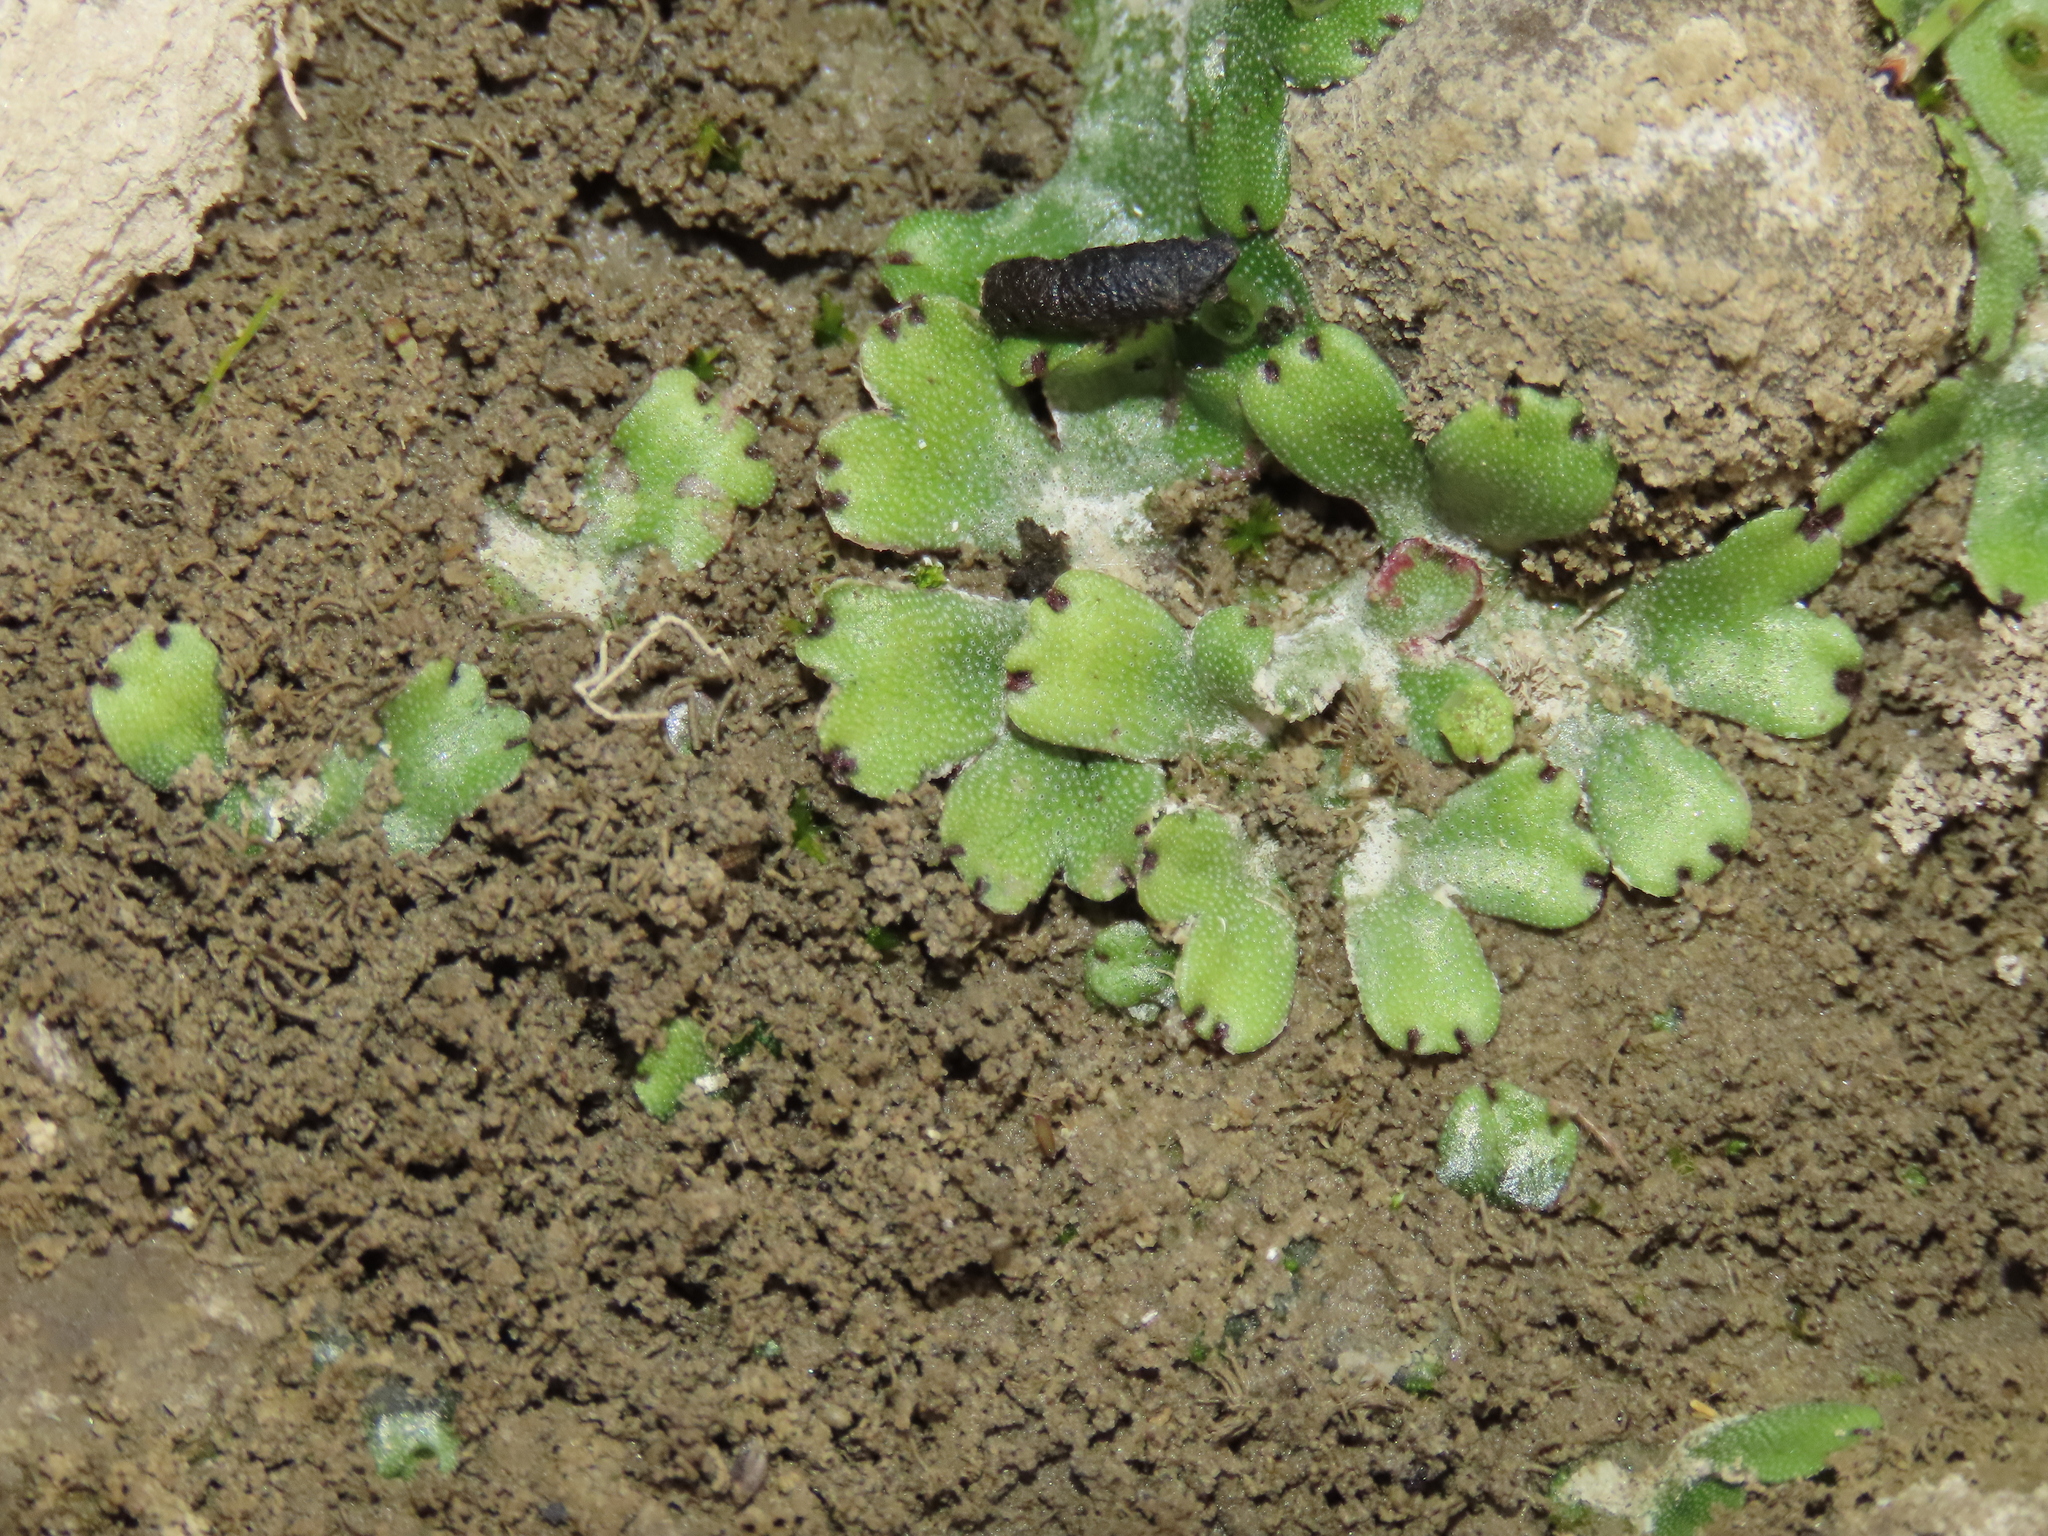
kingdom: Plantae
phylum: Marchantiophyta
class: Marchantiopsida
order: Marchantiales
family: Marchantiaceae
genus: Marchantia
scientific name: Marchantia emarginata
